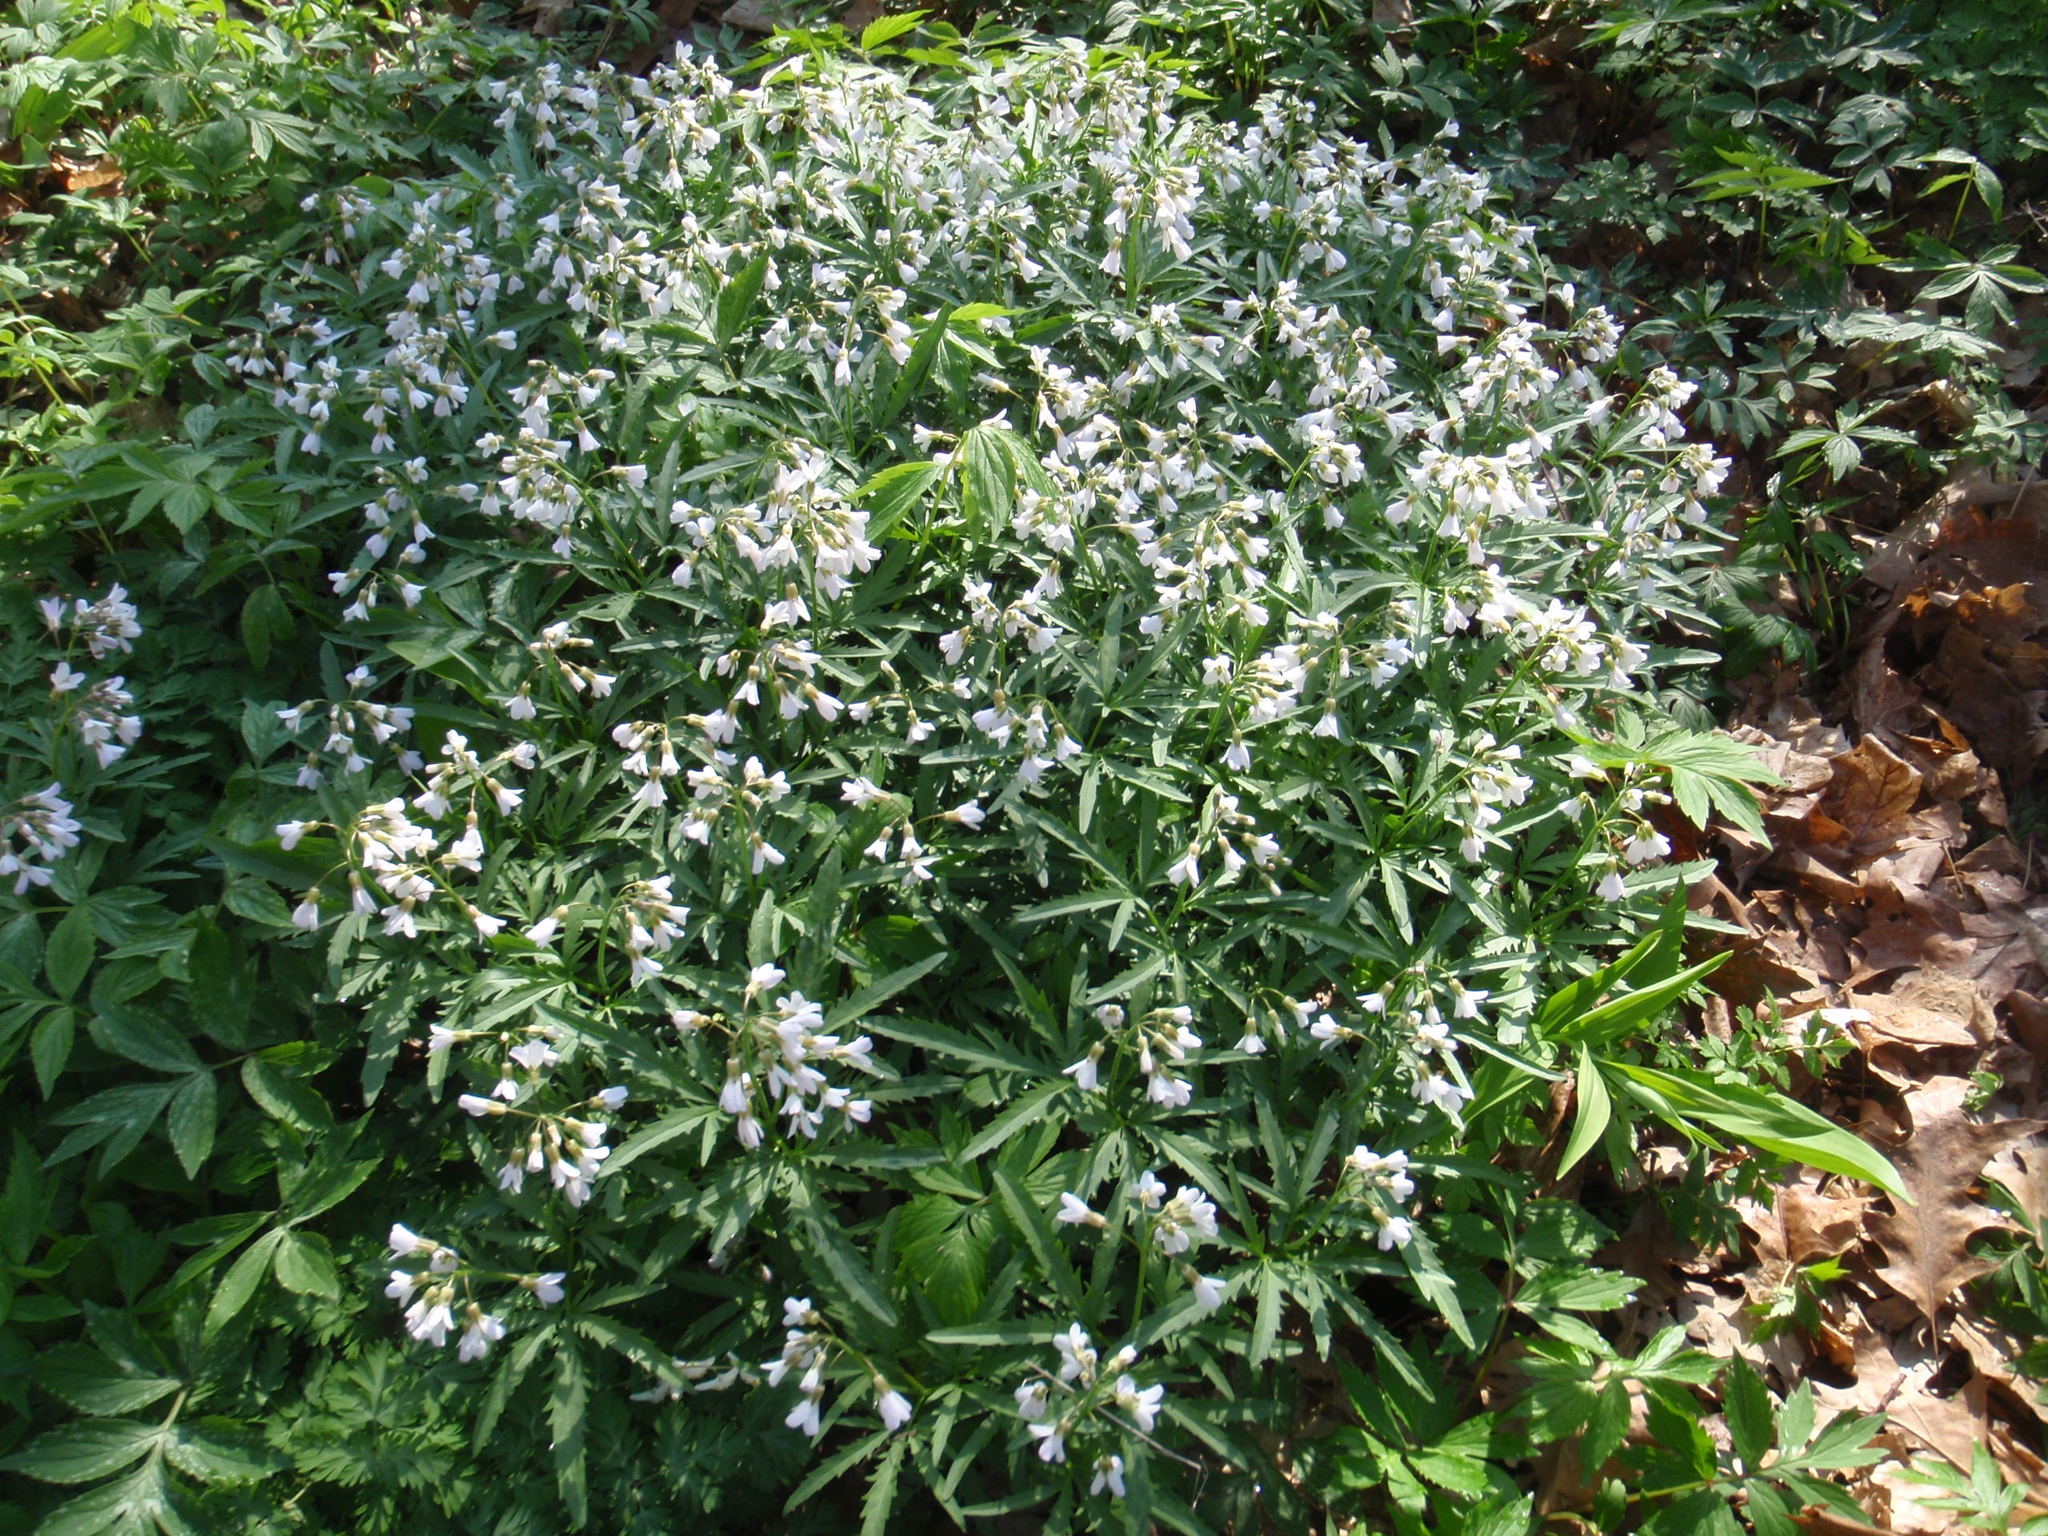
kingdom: Plantae
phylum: Tracheophyta
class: Magnoliopsida
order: Brassicales
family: Brassicaceae
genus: Cardamine
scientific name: Cardamine concatenata
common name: Cut-leaf toothcup
